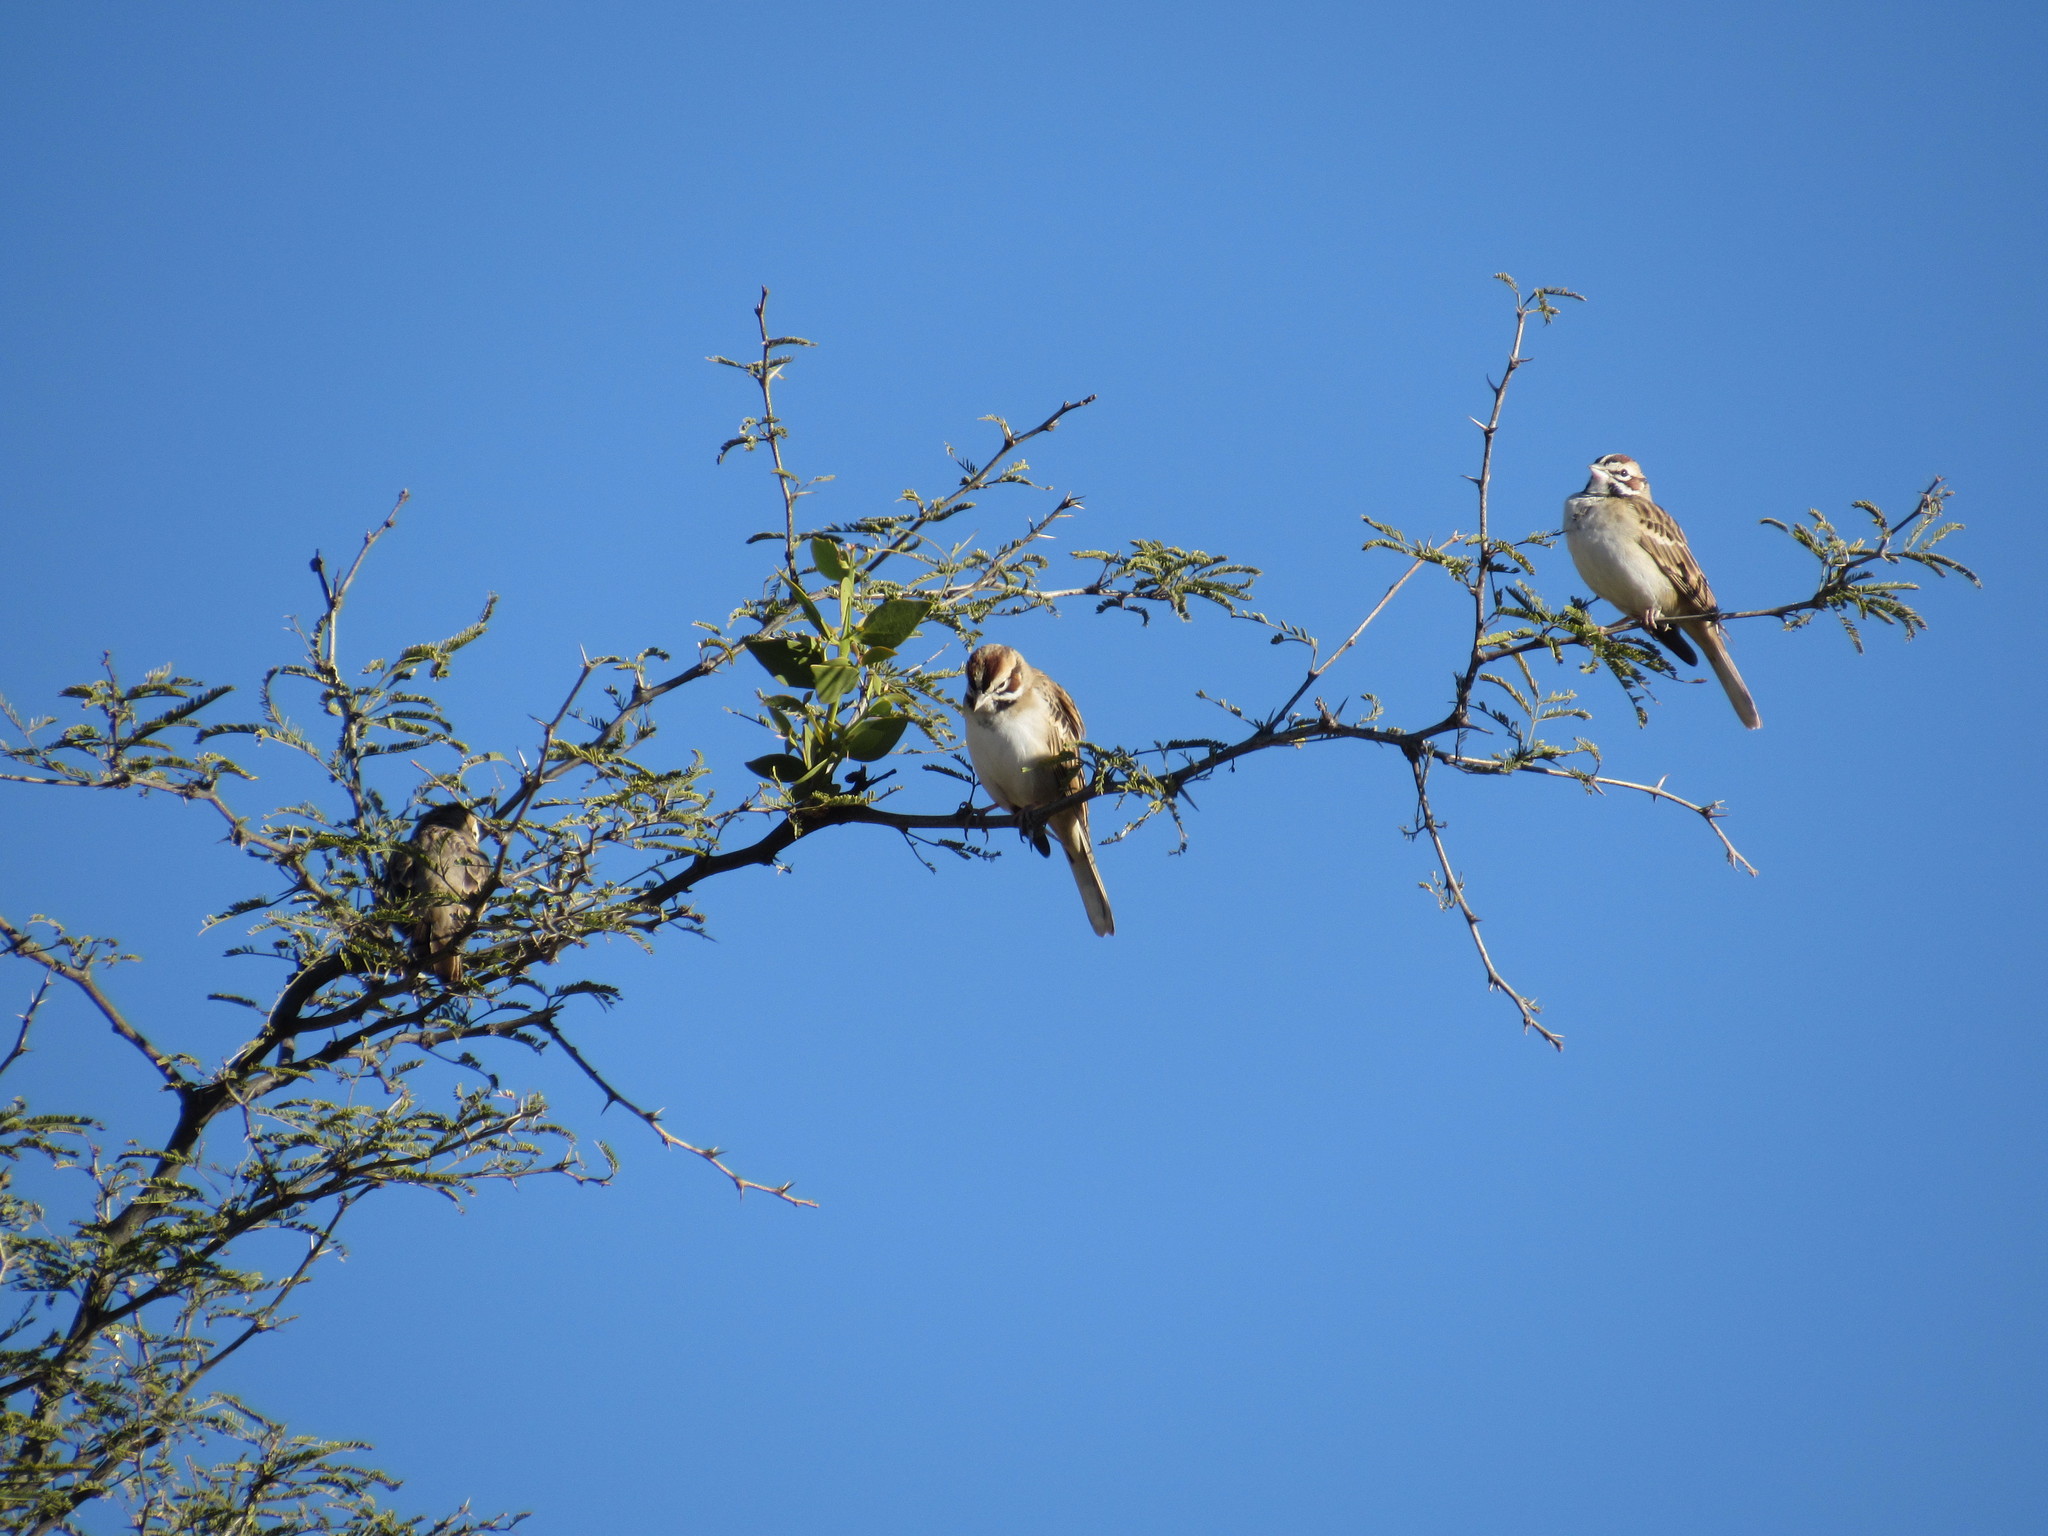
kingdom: Animalia
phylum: Chordata
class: Aves
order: Passeriformes
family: Passerellidae
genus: Chondestes
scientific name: Chondestes grammacus
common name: Lark sparrow
